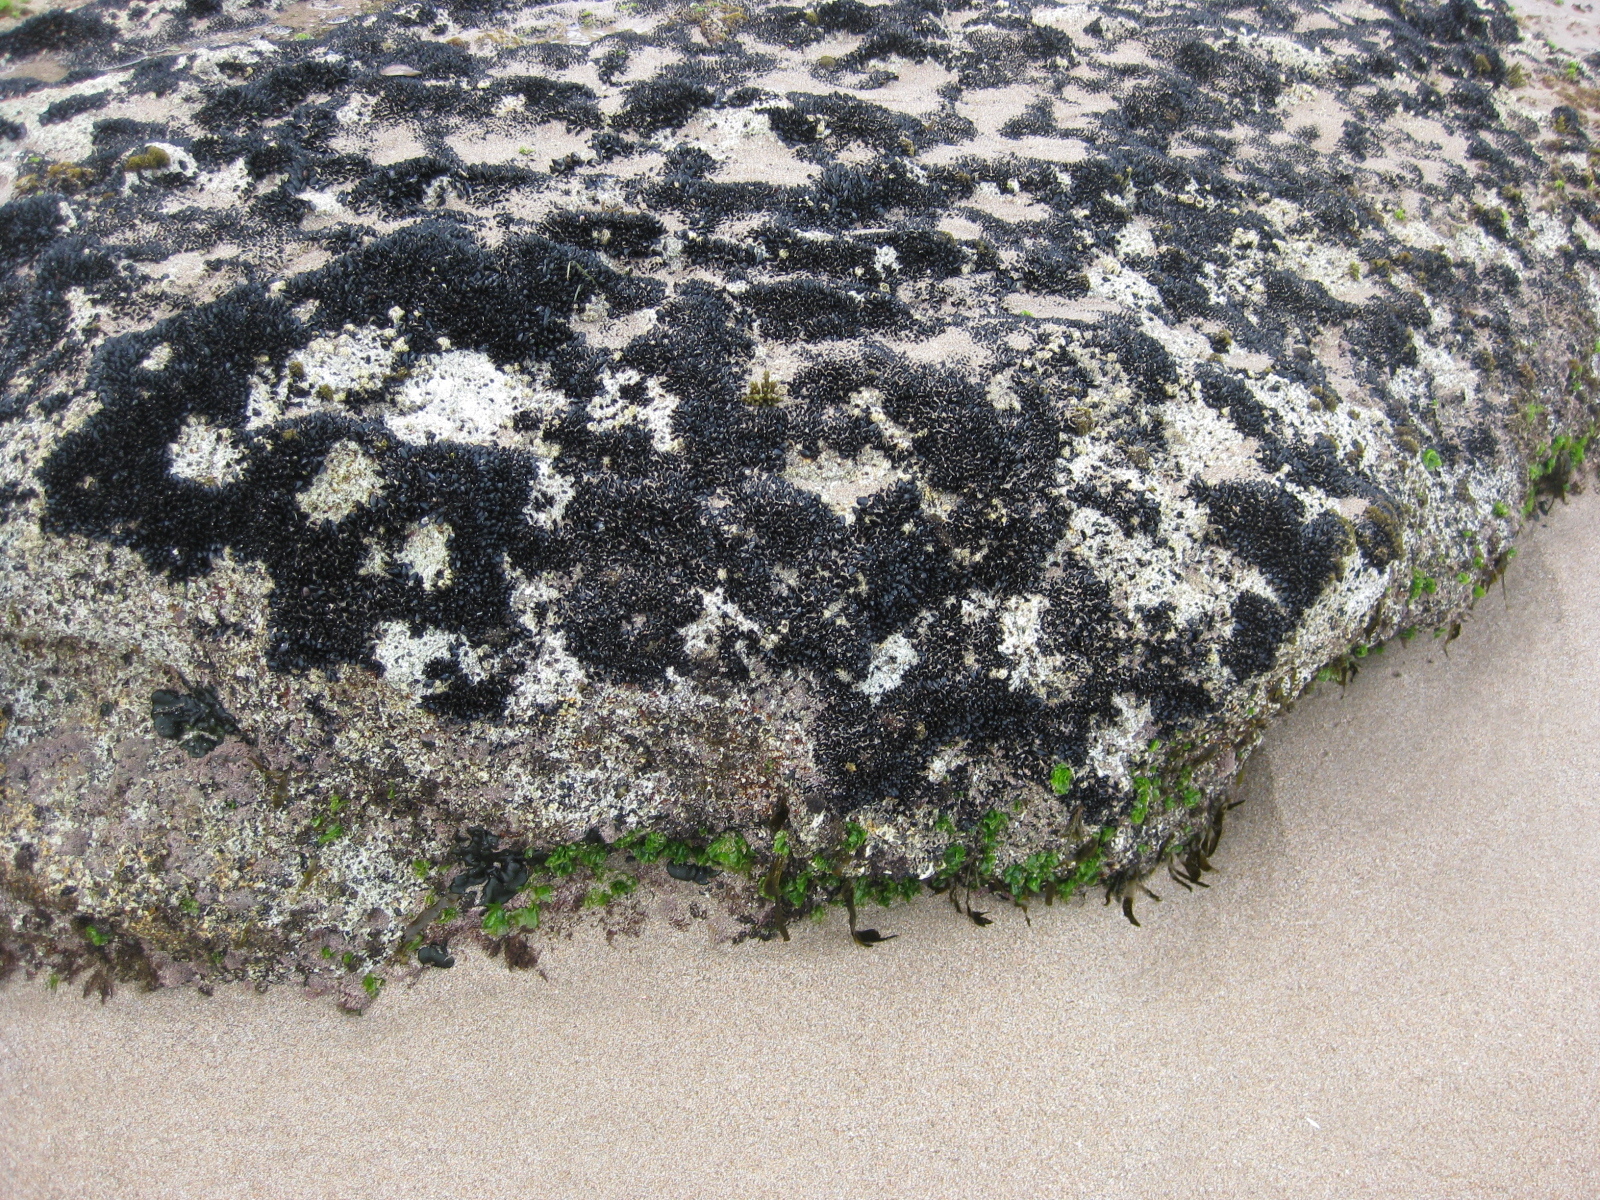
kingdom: Animalia
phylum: Mollusca
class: Bivalvia
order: Mytilida
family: Mytilidae
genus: Xenostrobus
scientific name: Xenostrobus neozelanicus
